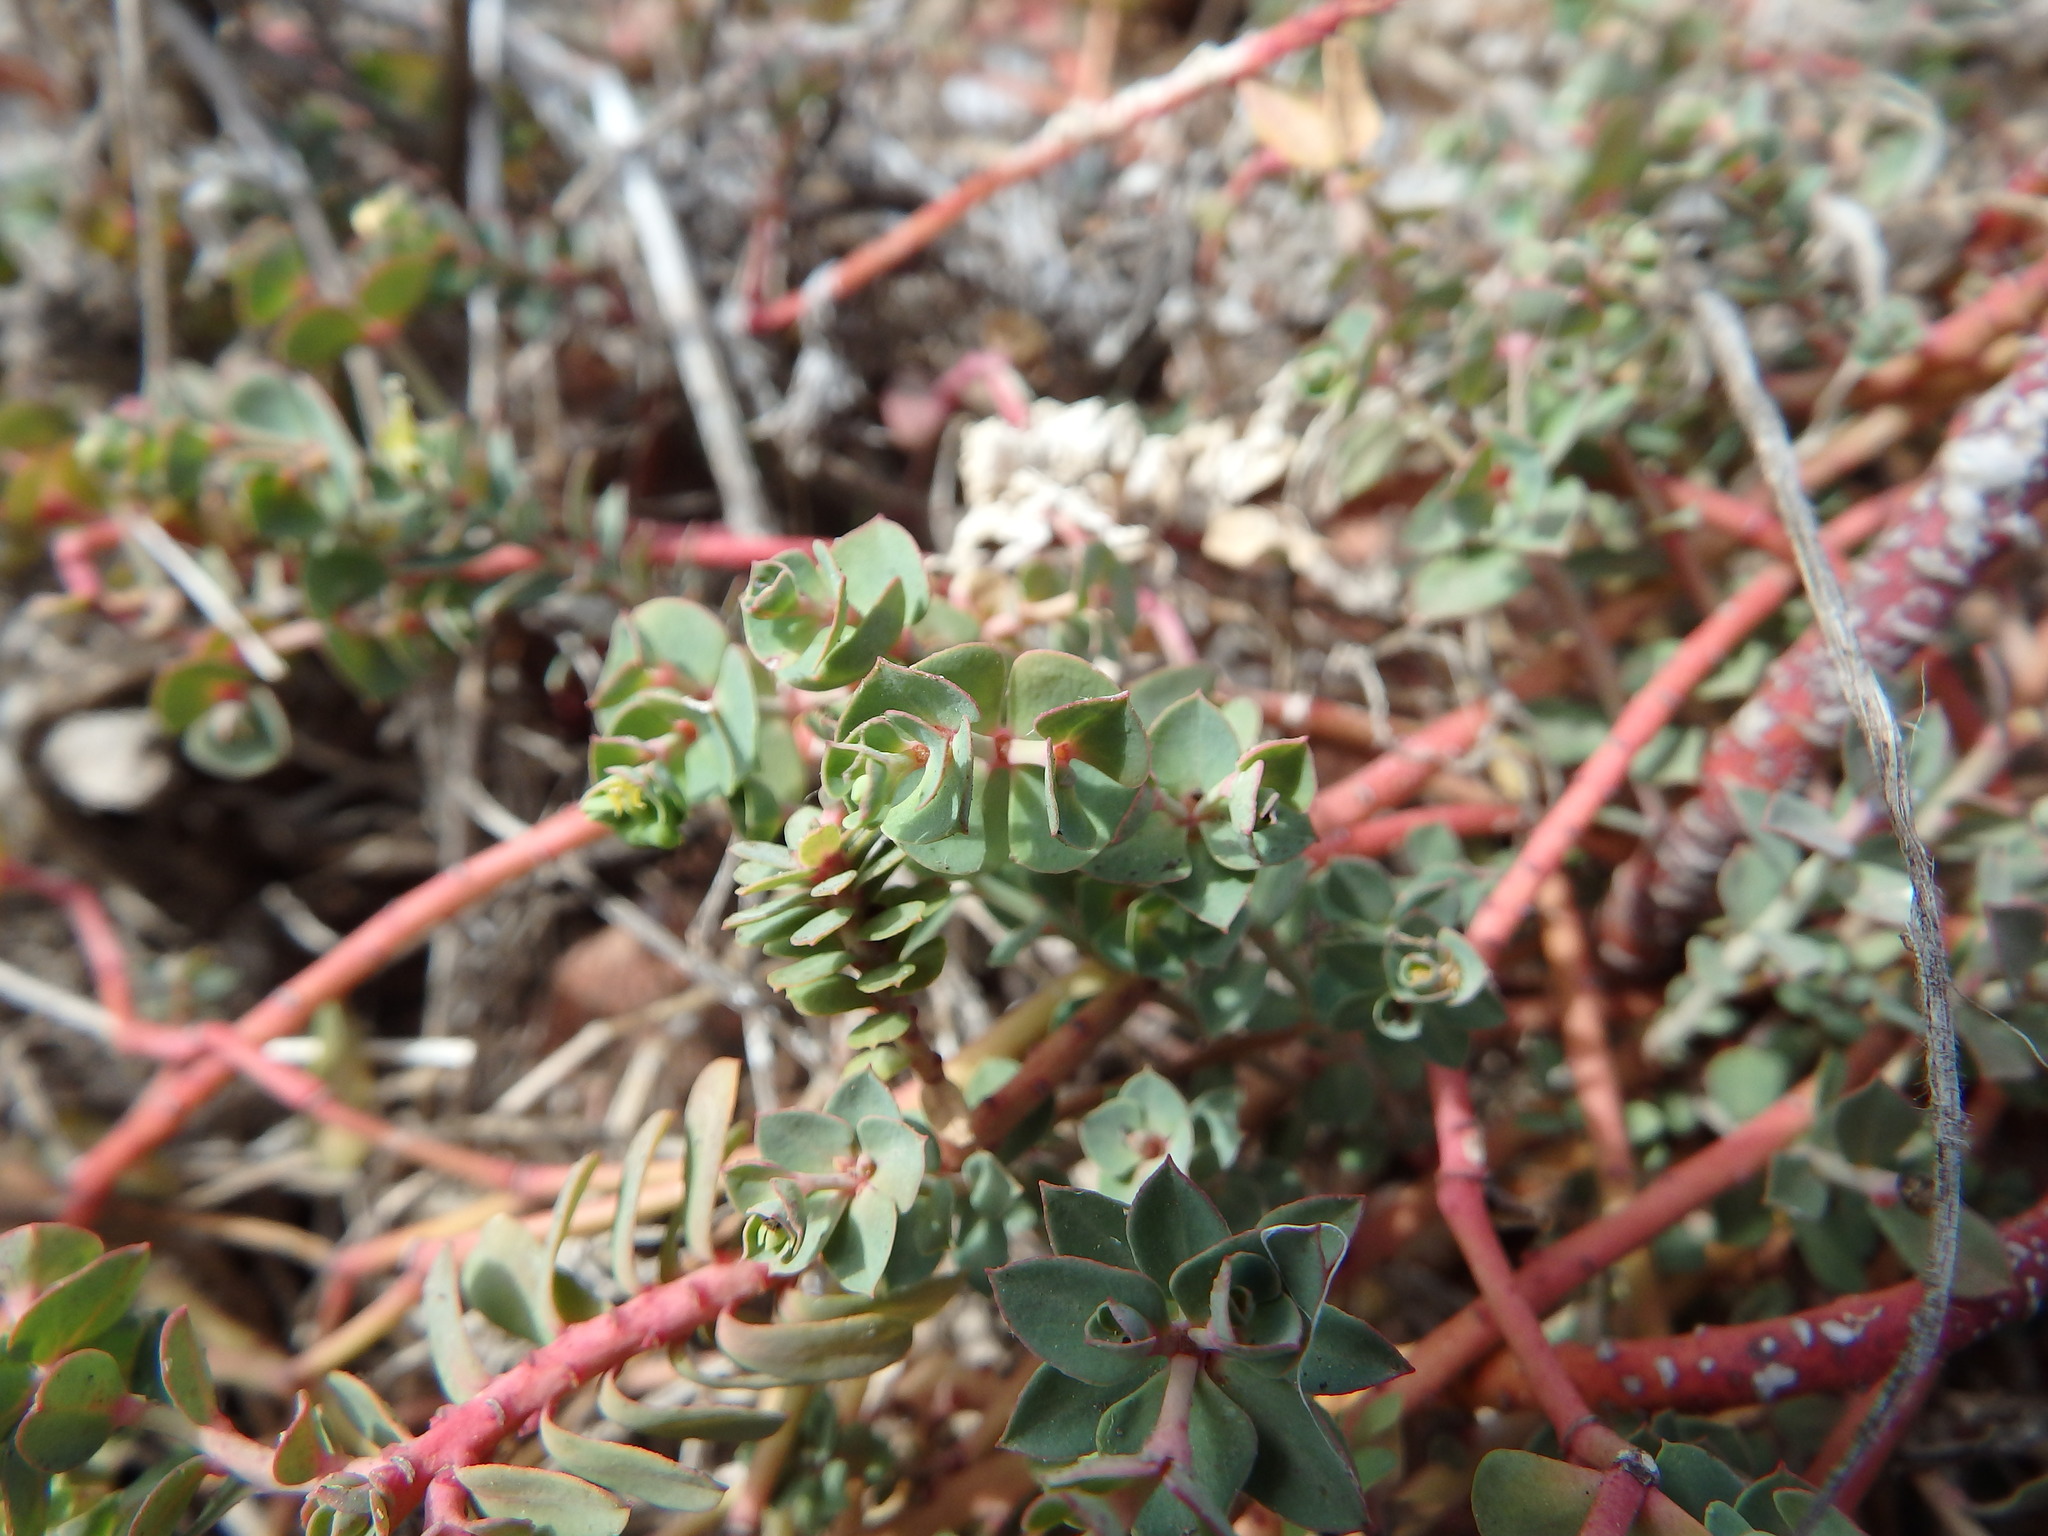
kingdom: Plantae
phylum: Tracheophyta
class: Magnoliopsida
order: Malpighiales
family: Euphorbiaceae
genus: Euphorbia
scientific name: Euphorbia portlandica
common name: Portland spurge
